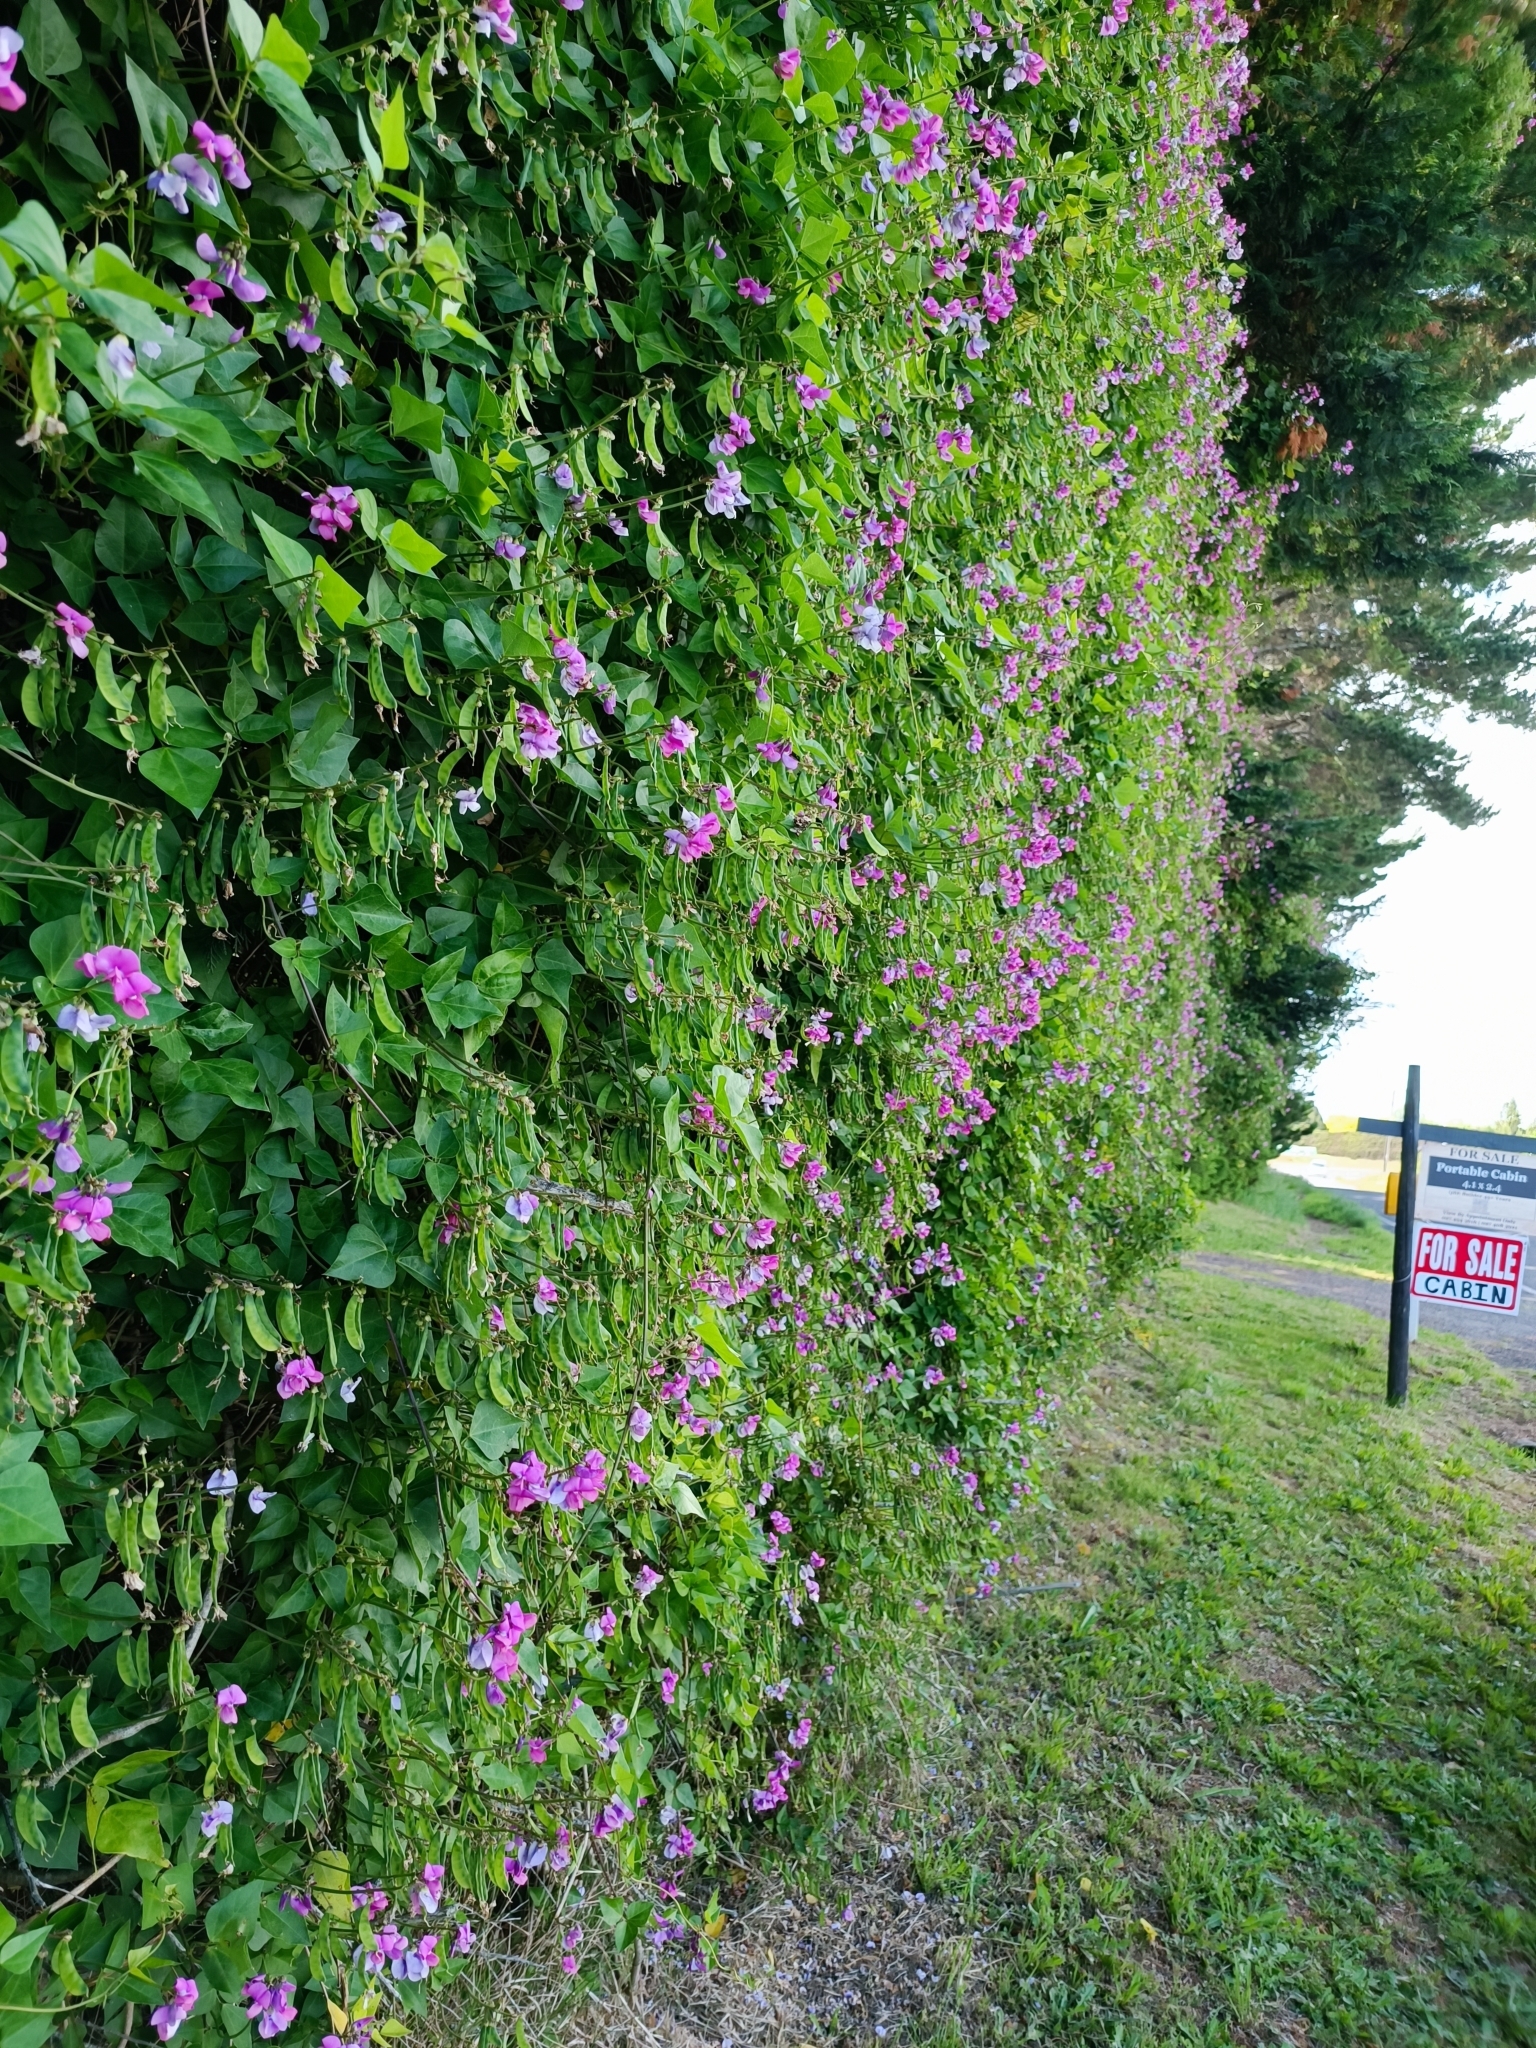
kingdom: Plantae
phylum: Tracheophyta
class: Magnoliopsida
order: Fabales
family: Fabaceae
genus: Dipogon
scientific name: Dipogon lignosus
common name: Okie bean
